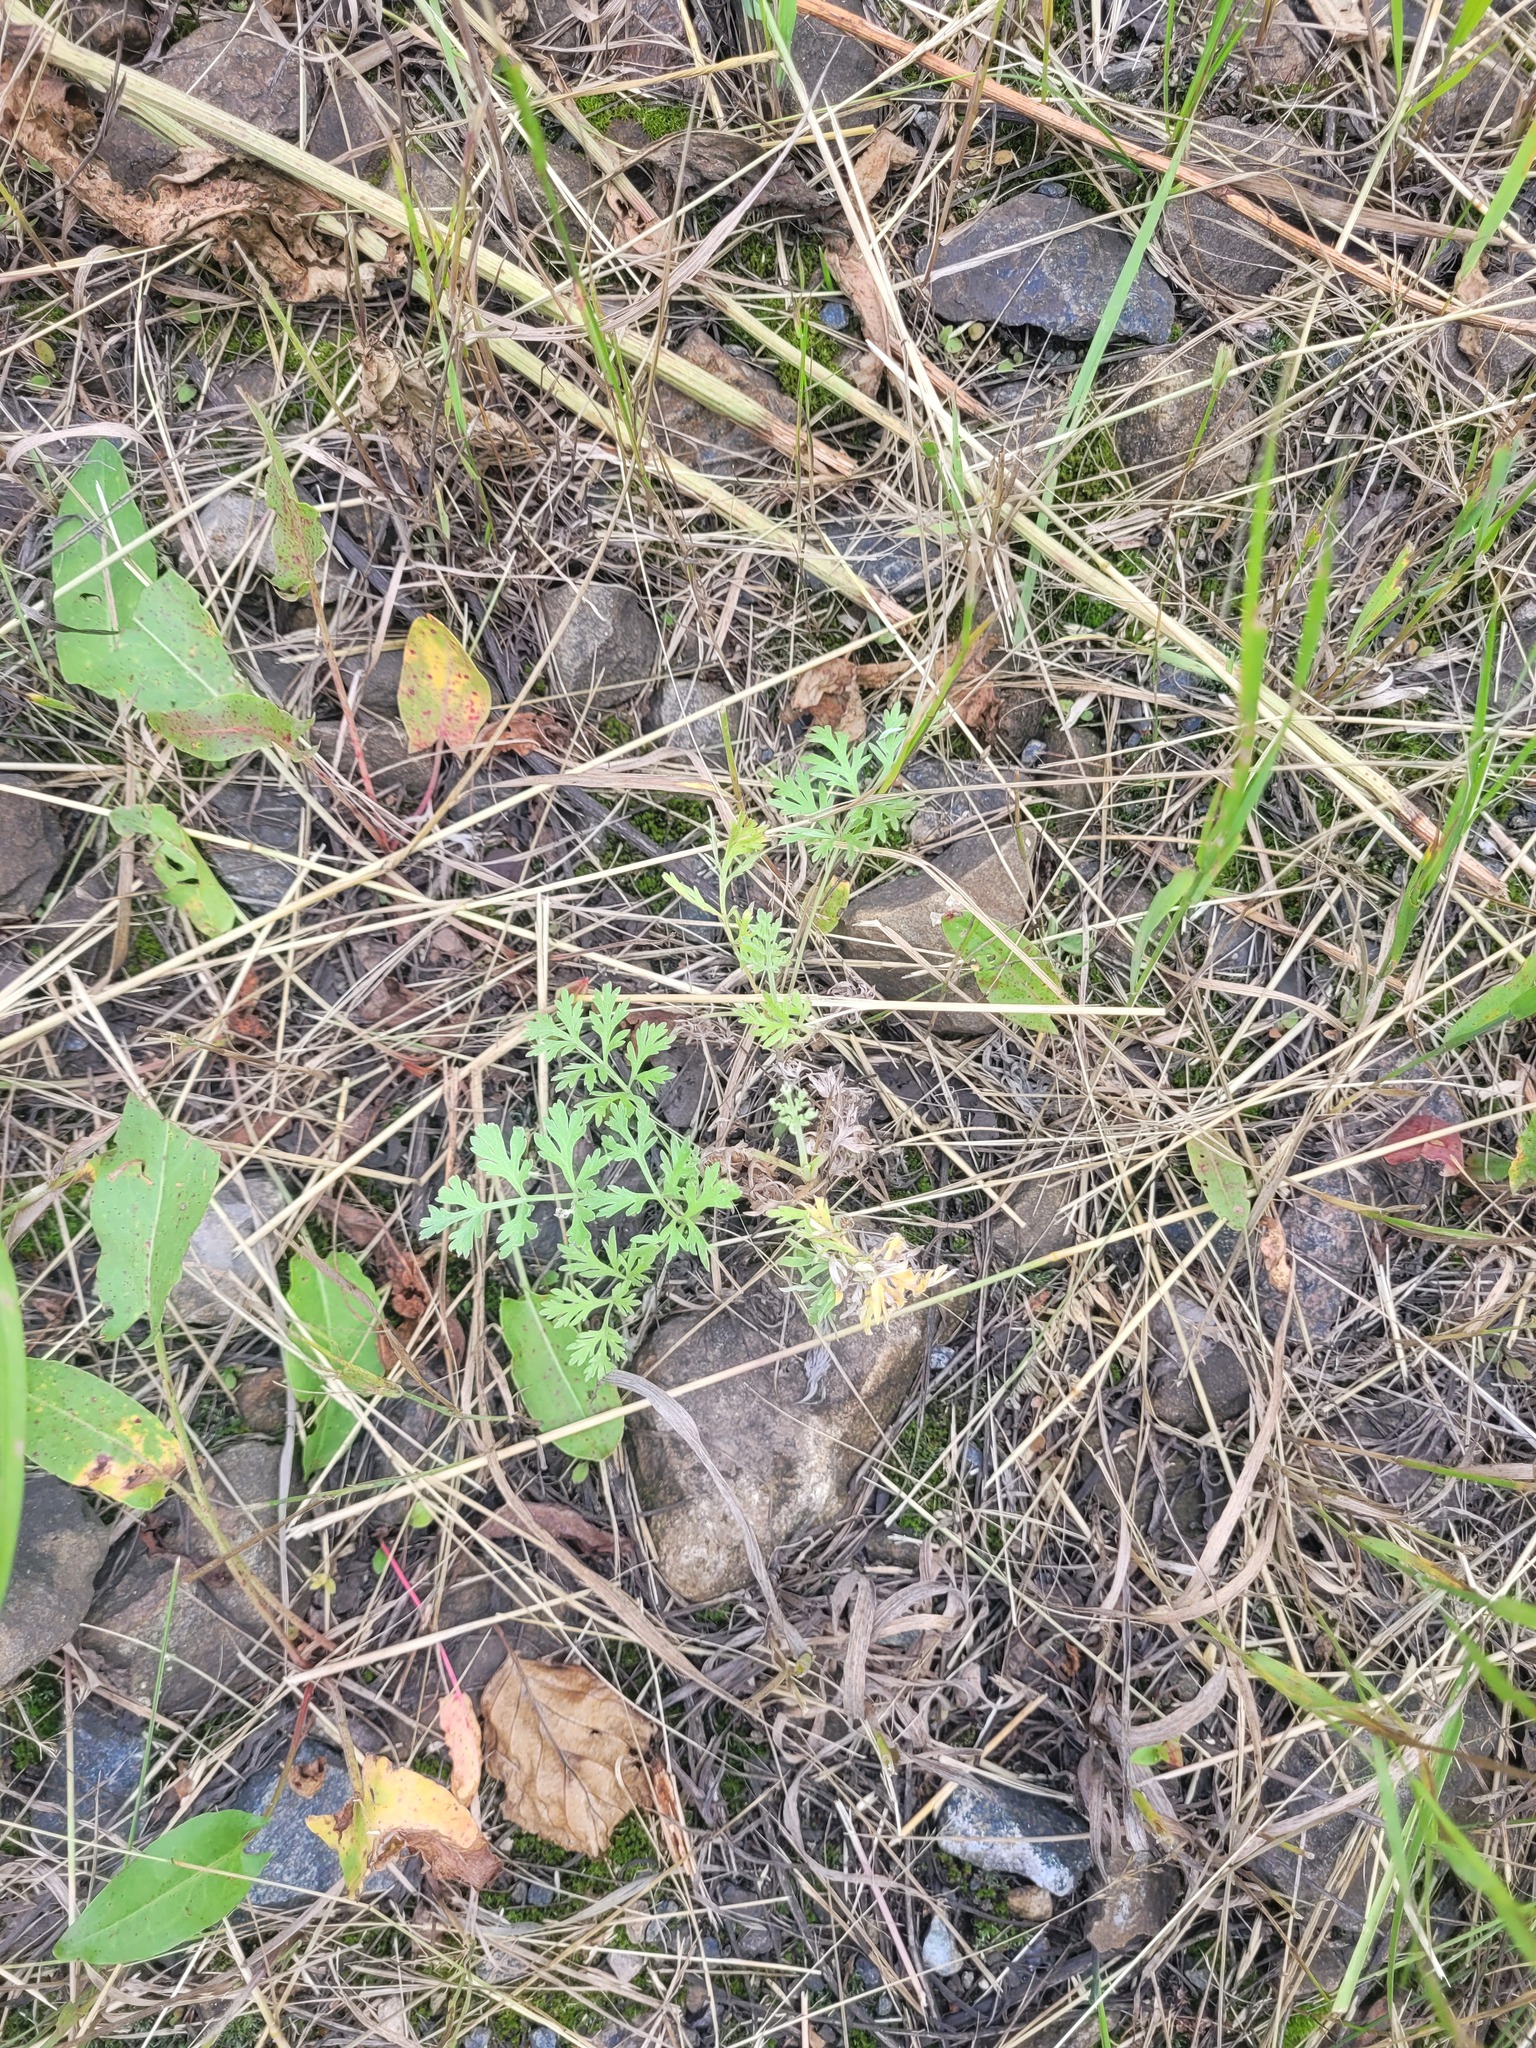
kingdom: Plantae
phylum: Tracheophyta
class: Magnoliopsida
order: Asterales
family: Asteraceae
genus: Artemisia
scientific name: Artemisia absinthium
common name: Wormwood
